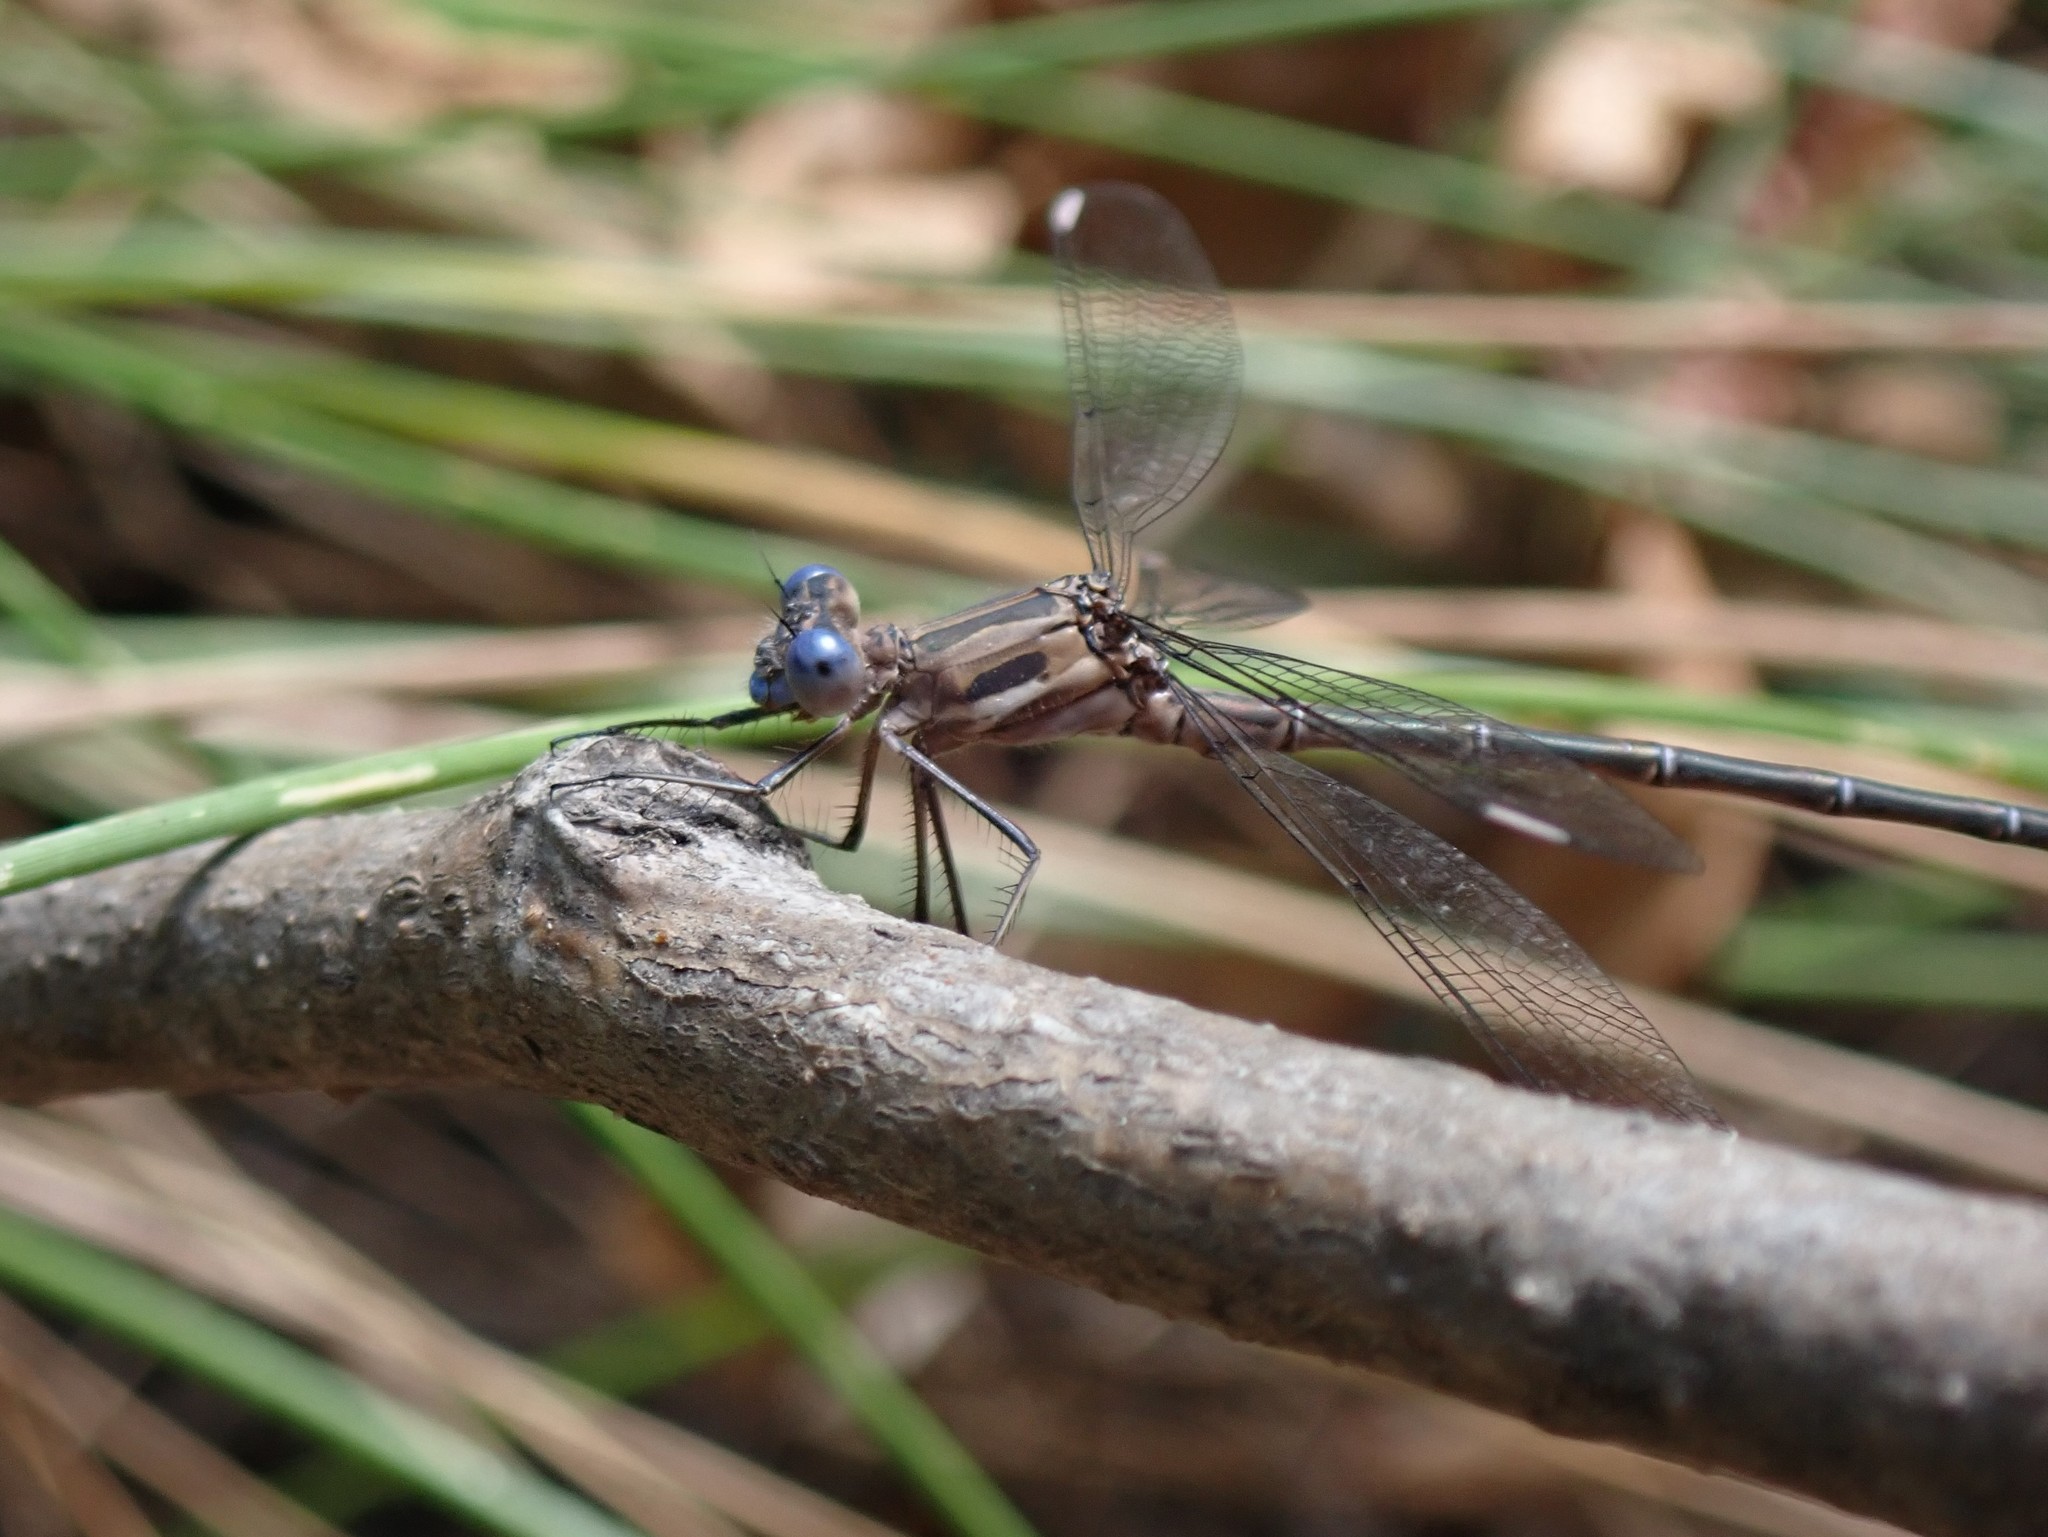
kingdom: Animalia
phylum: Arthropoda
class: Insecta
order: Odonata
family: Lestidae
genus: Archilestes
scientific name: Archilestes californicus
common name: California spreadwing
